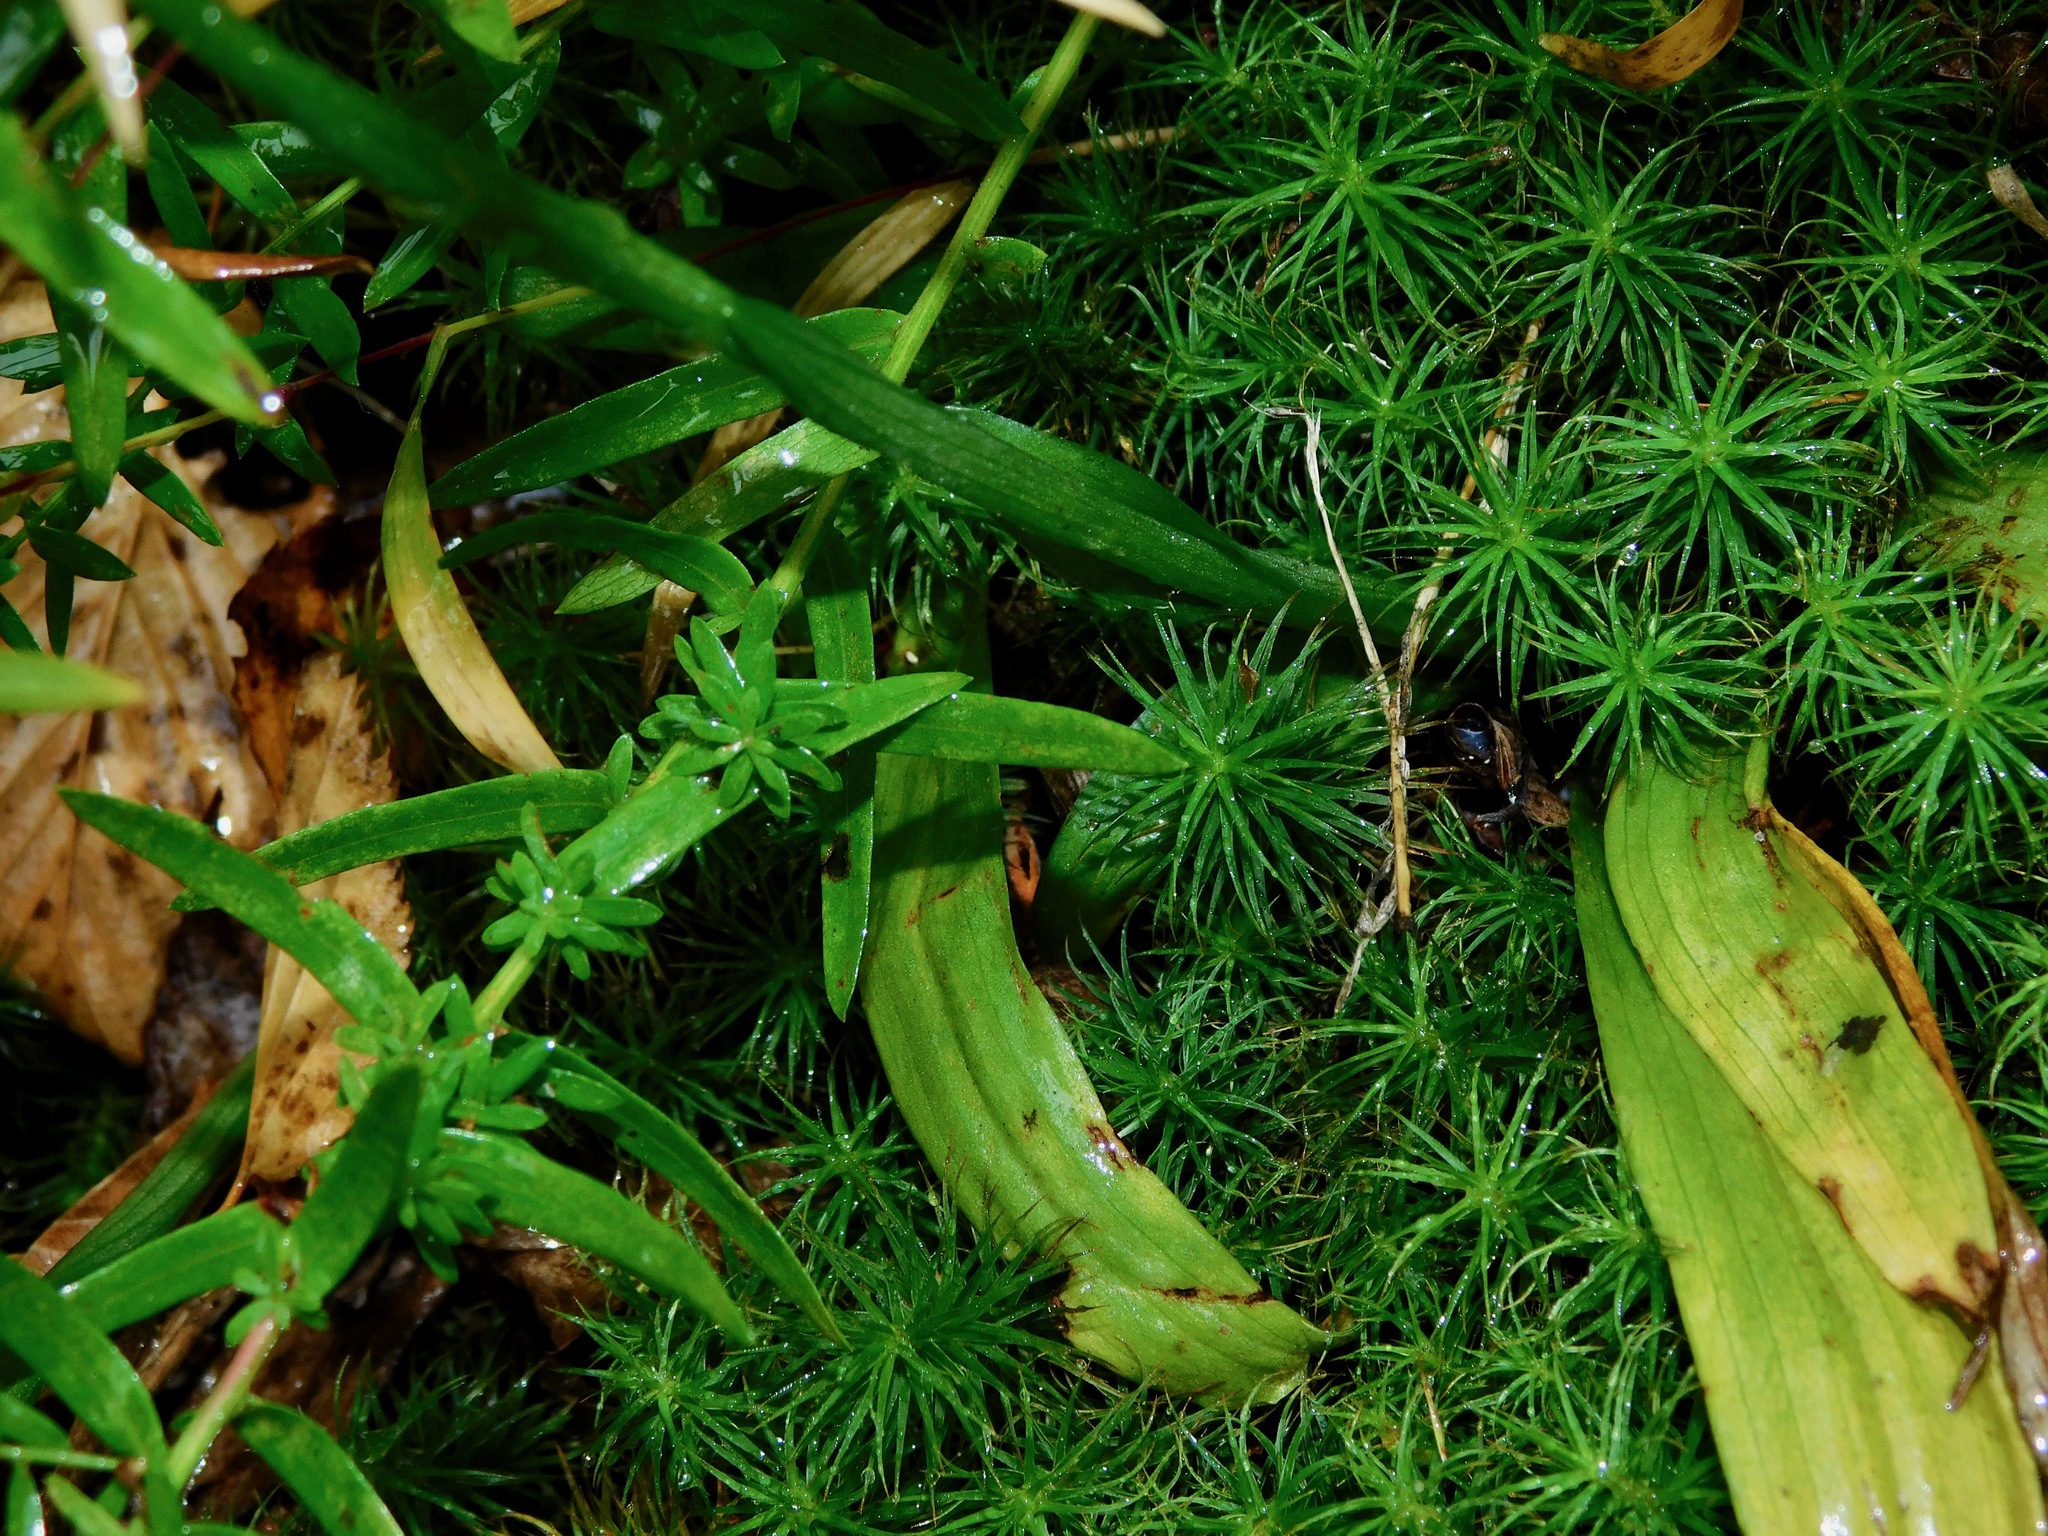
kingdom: Plantae
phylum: Tracheophyta
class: Liliopsida
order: Asparagales
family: Orchidaceae
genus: Spiranthes
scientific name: Spiranthes cernua
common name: Dropping ladies'-tresses
